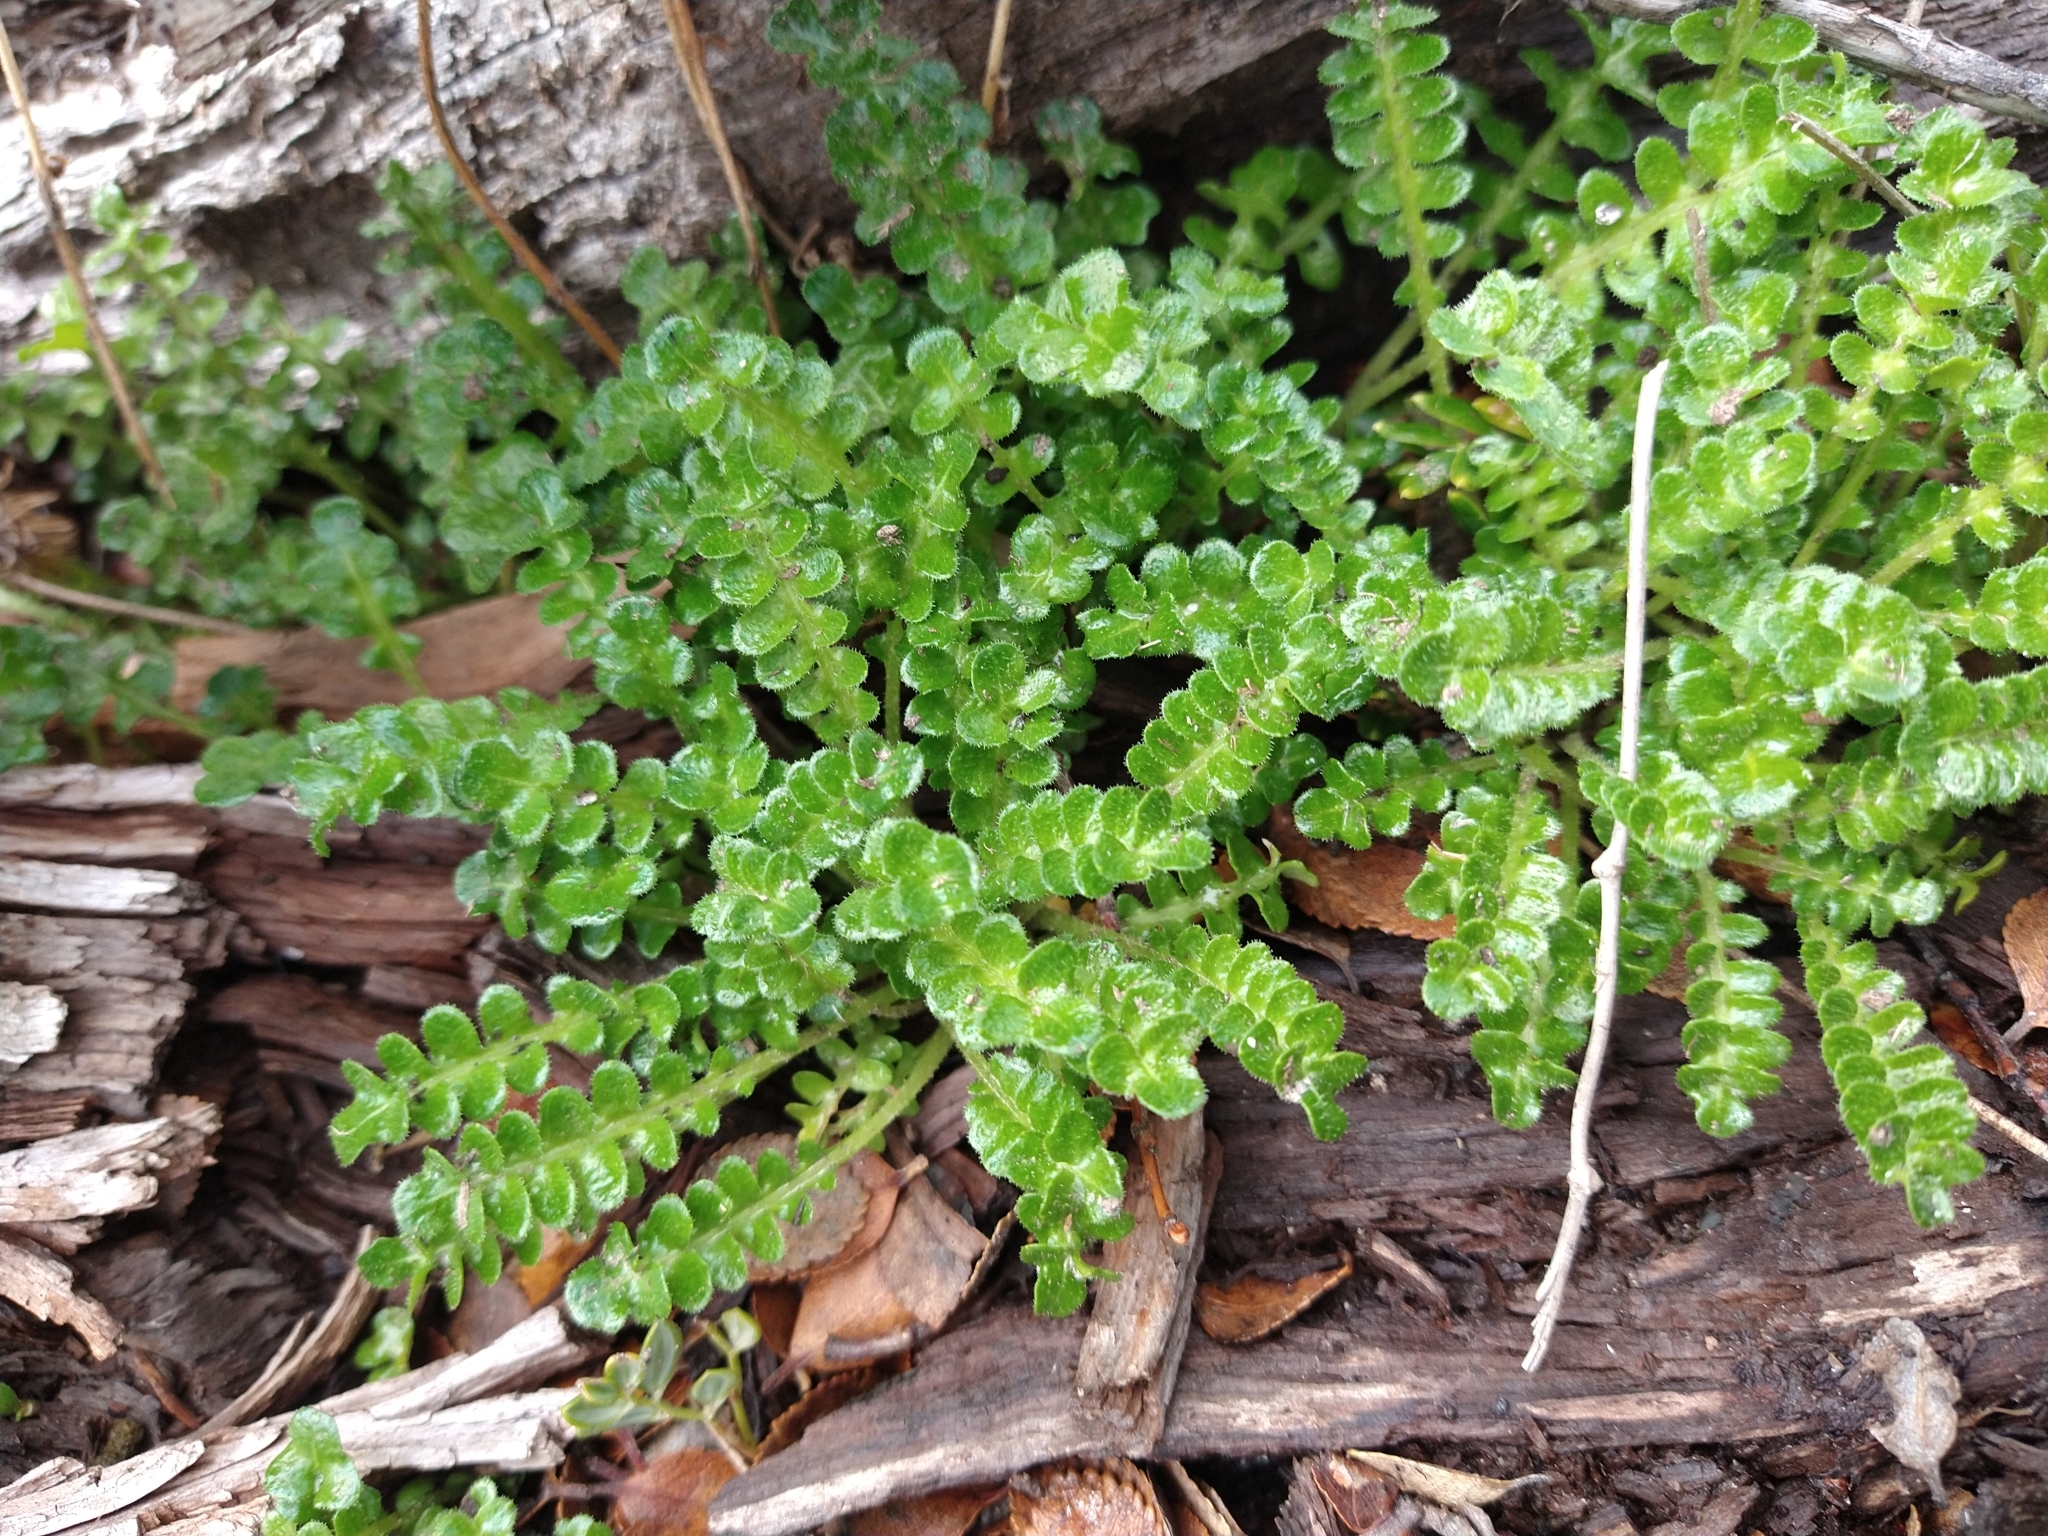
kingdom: Plantae
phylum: Tracheophyta
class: Magnoliopsida
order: Asterales
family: Asteraceae
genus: Perezia
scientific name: Perezia magellanica
